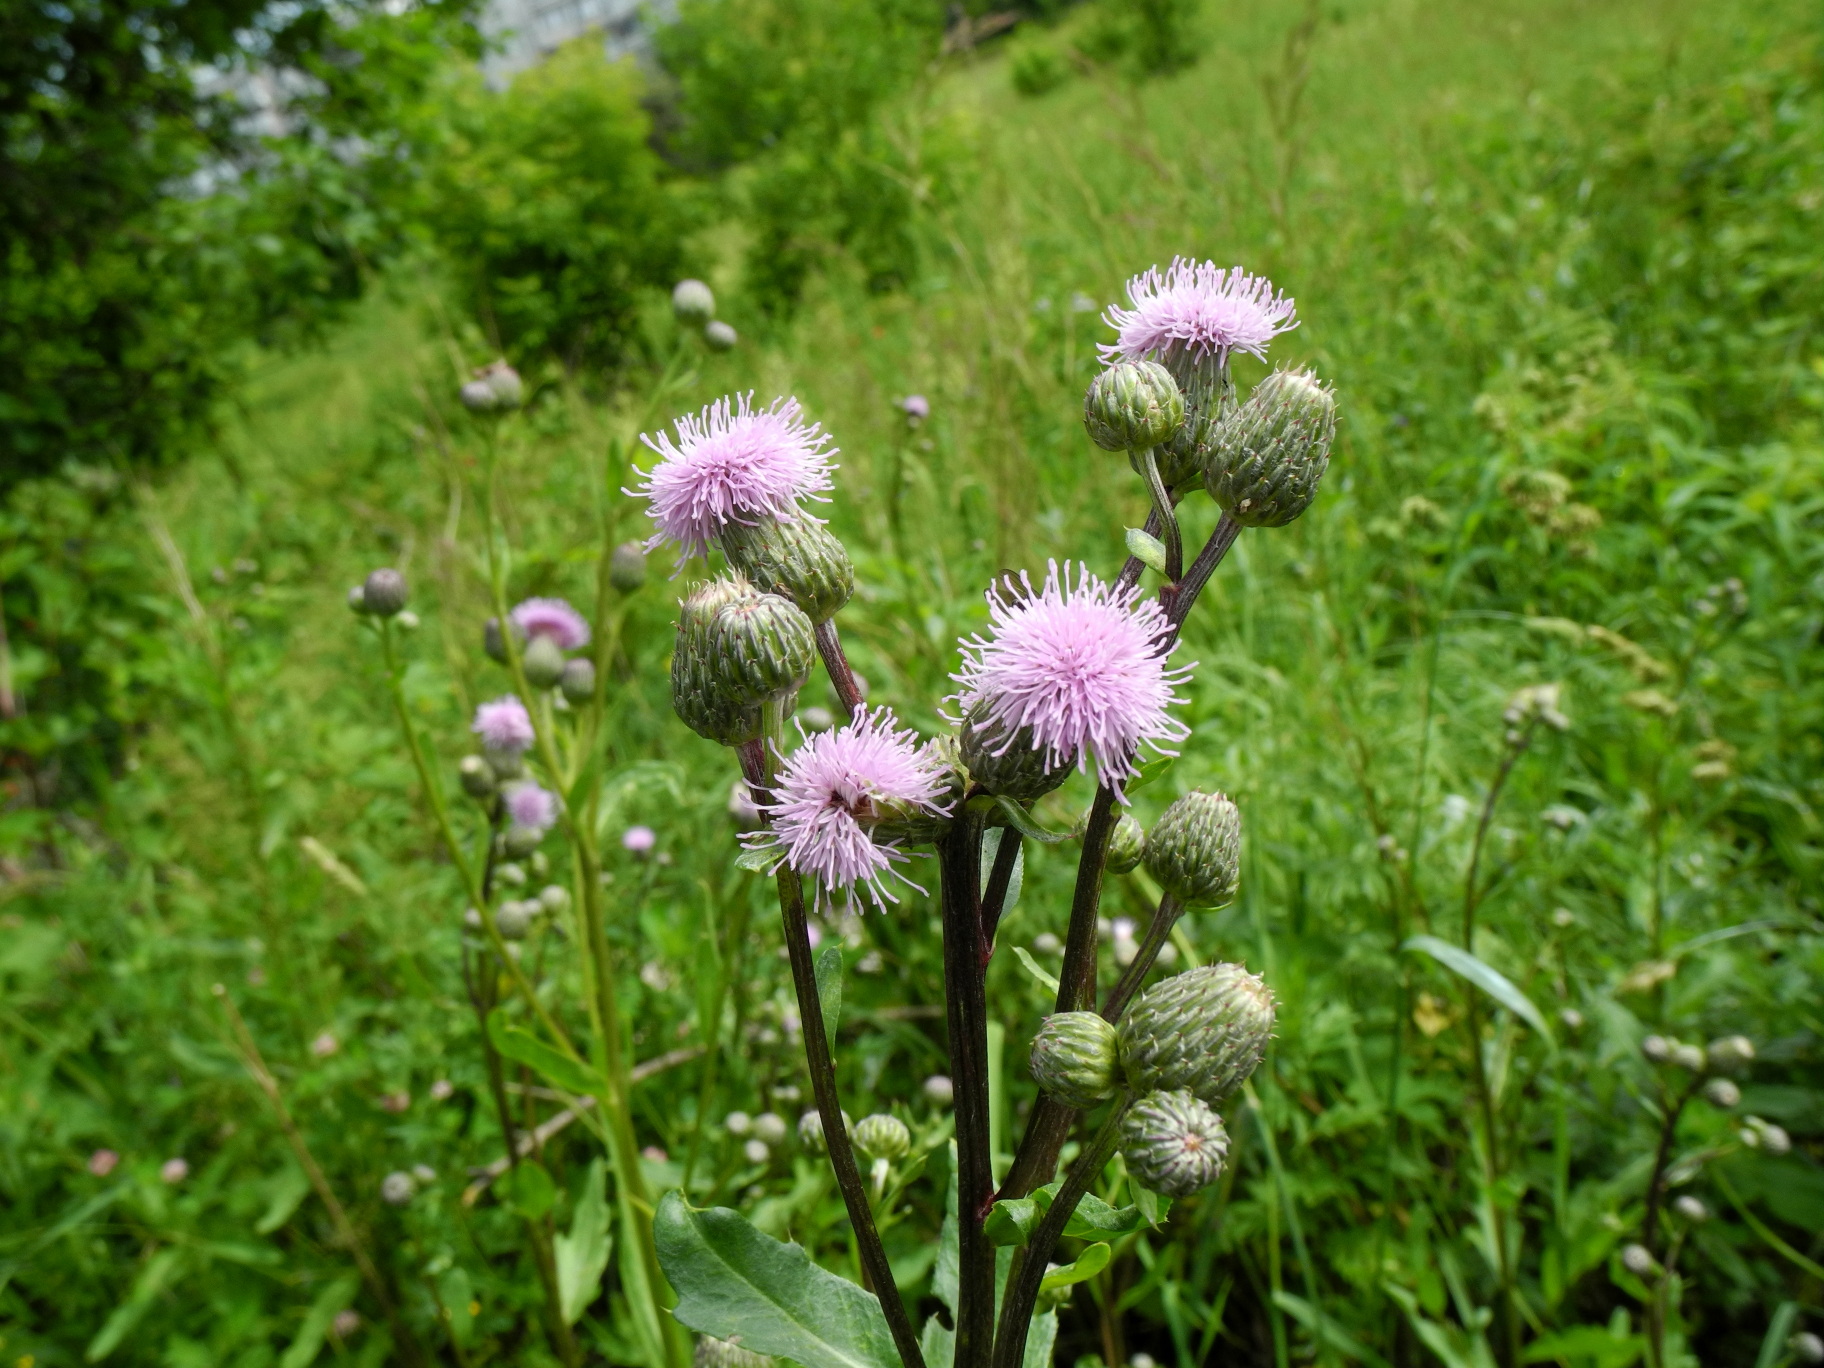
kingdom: Plantae
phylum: Tracheophyta
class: Magnoliopsida
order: Asterales
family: Asteraceae
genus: Cirsium
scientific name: Cirsium arvense
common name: Creeping thistle
